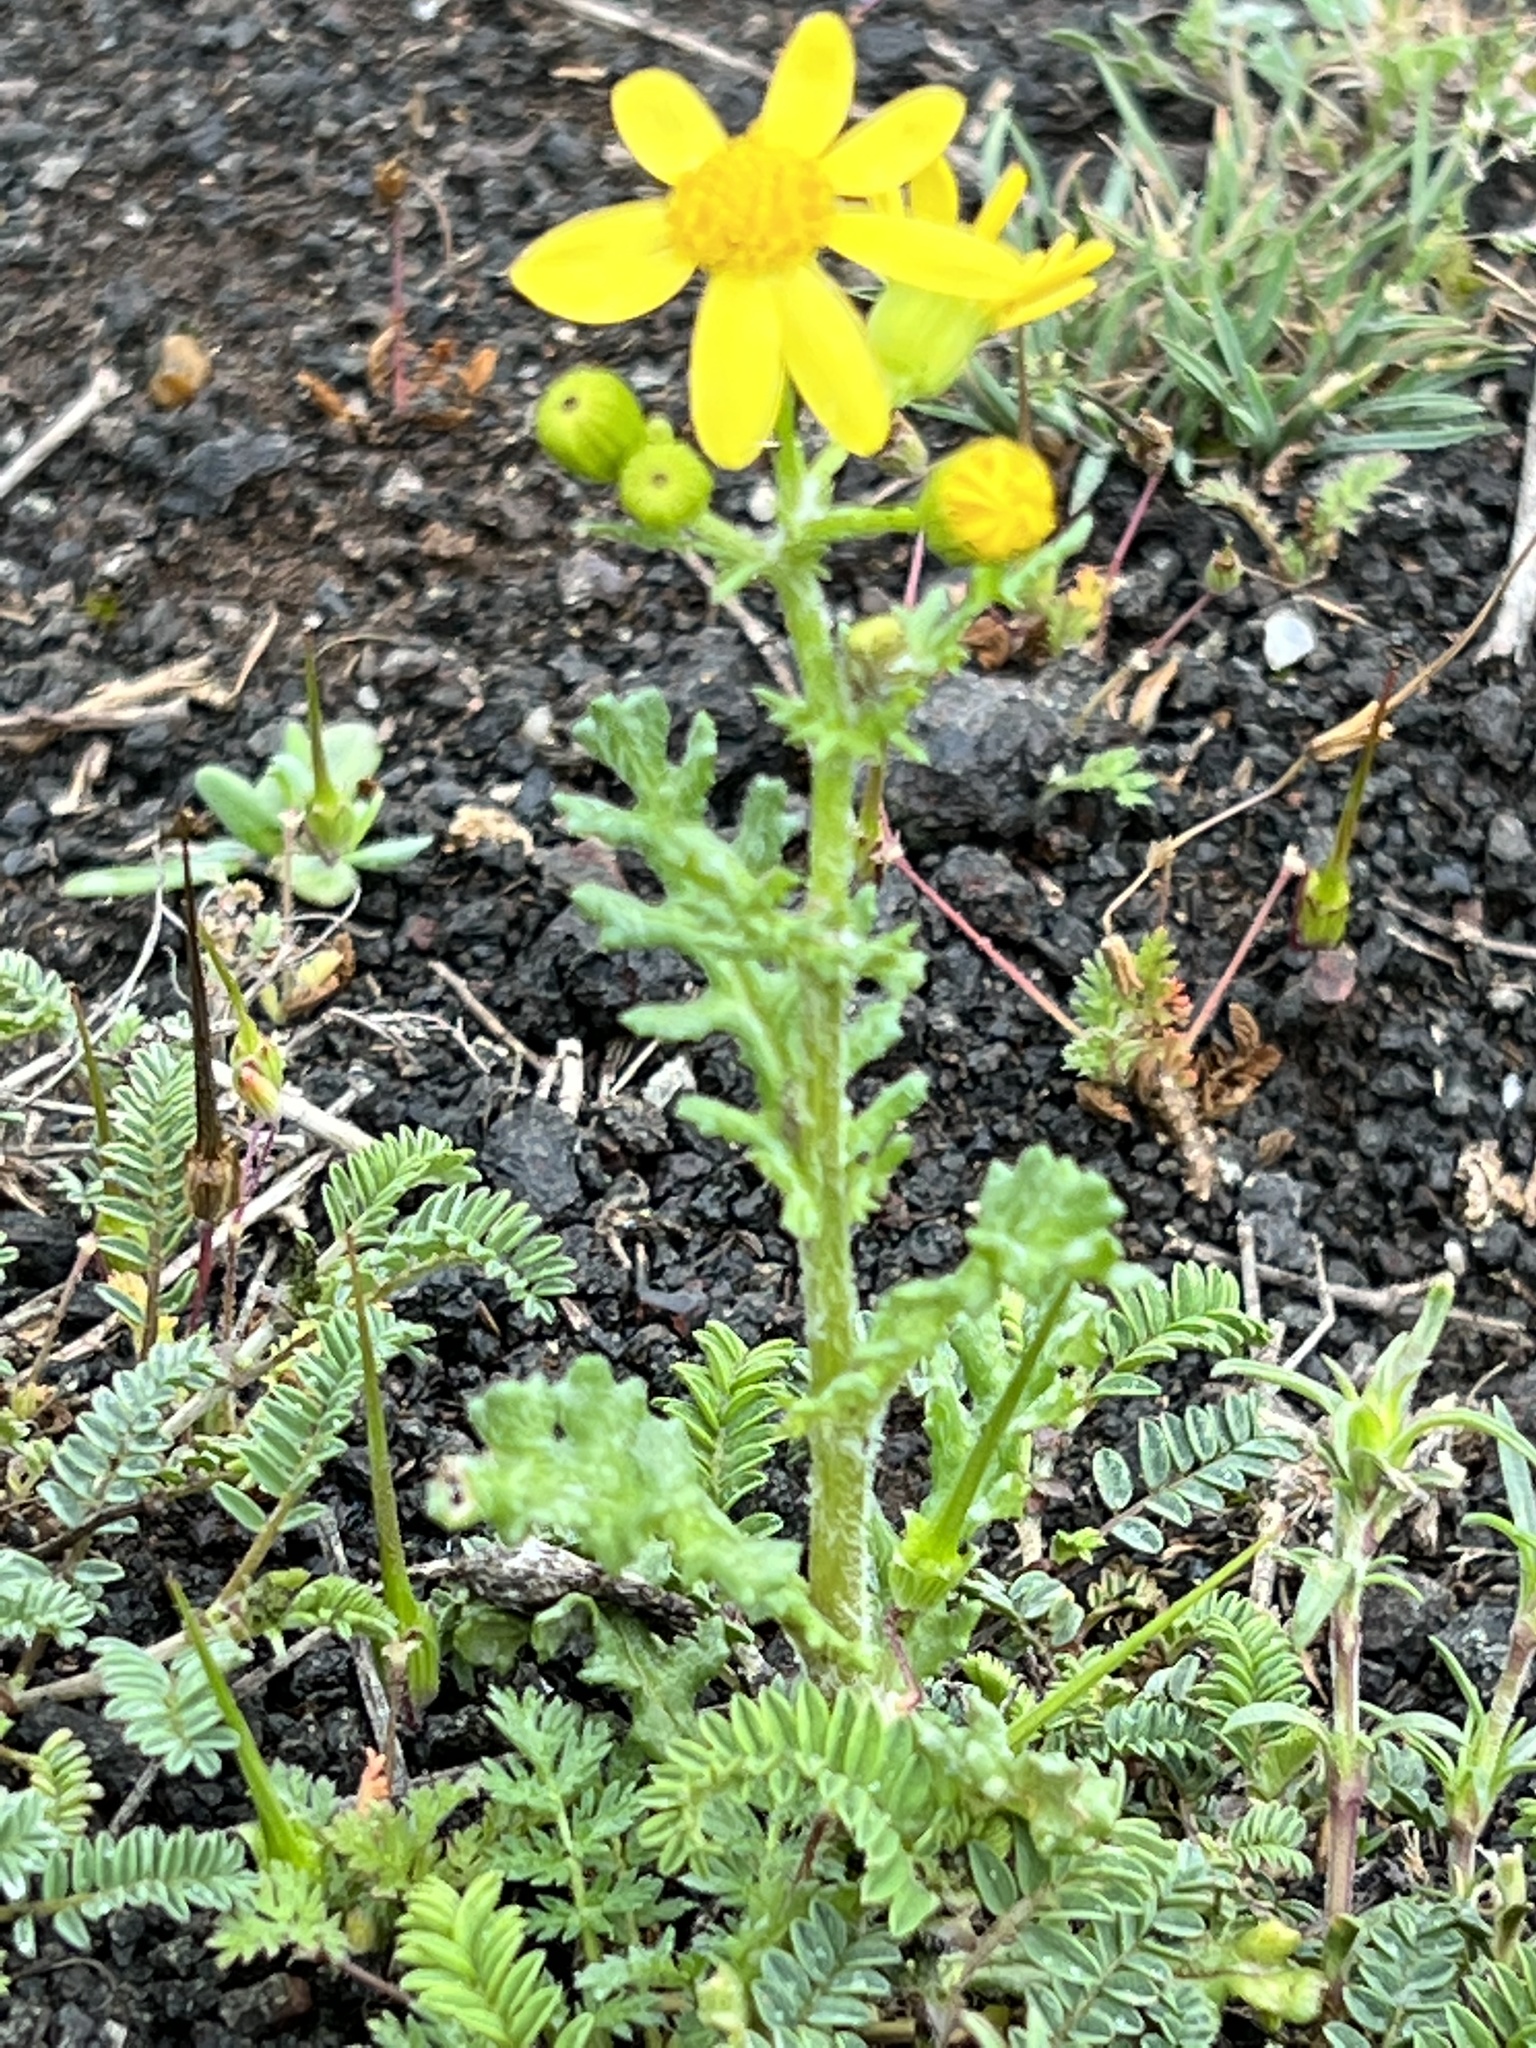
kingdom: Plantae
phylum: Tracheophyta
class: Magnoliopsida
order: Asterales
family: Asteraceae
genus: Senecio
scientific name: Senecio vernalis
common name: Eastern groundsel
